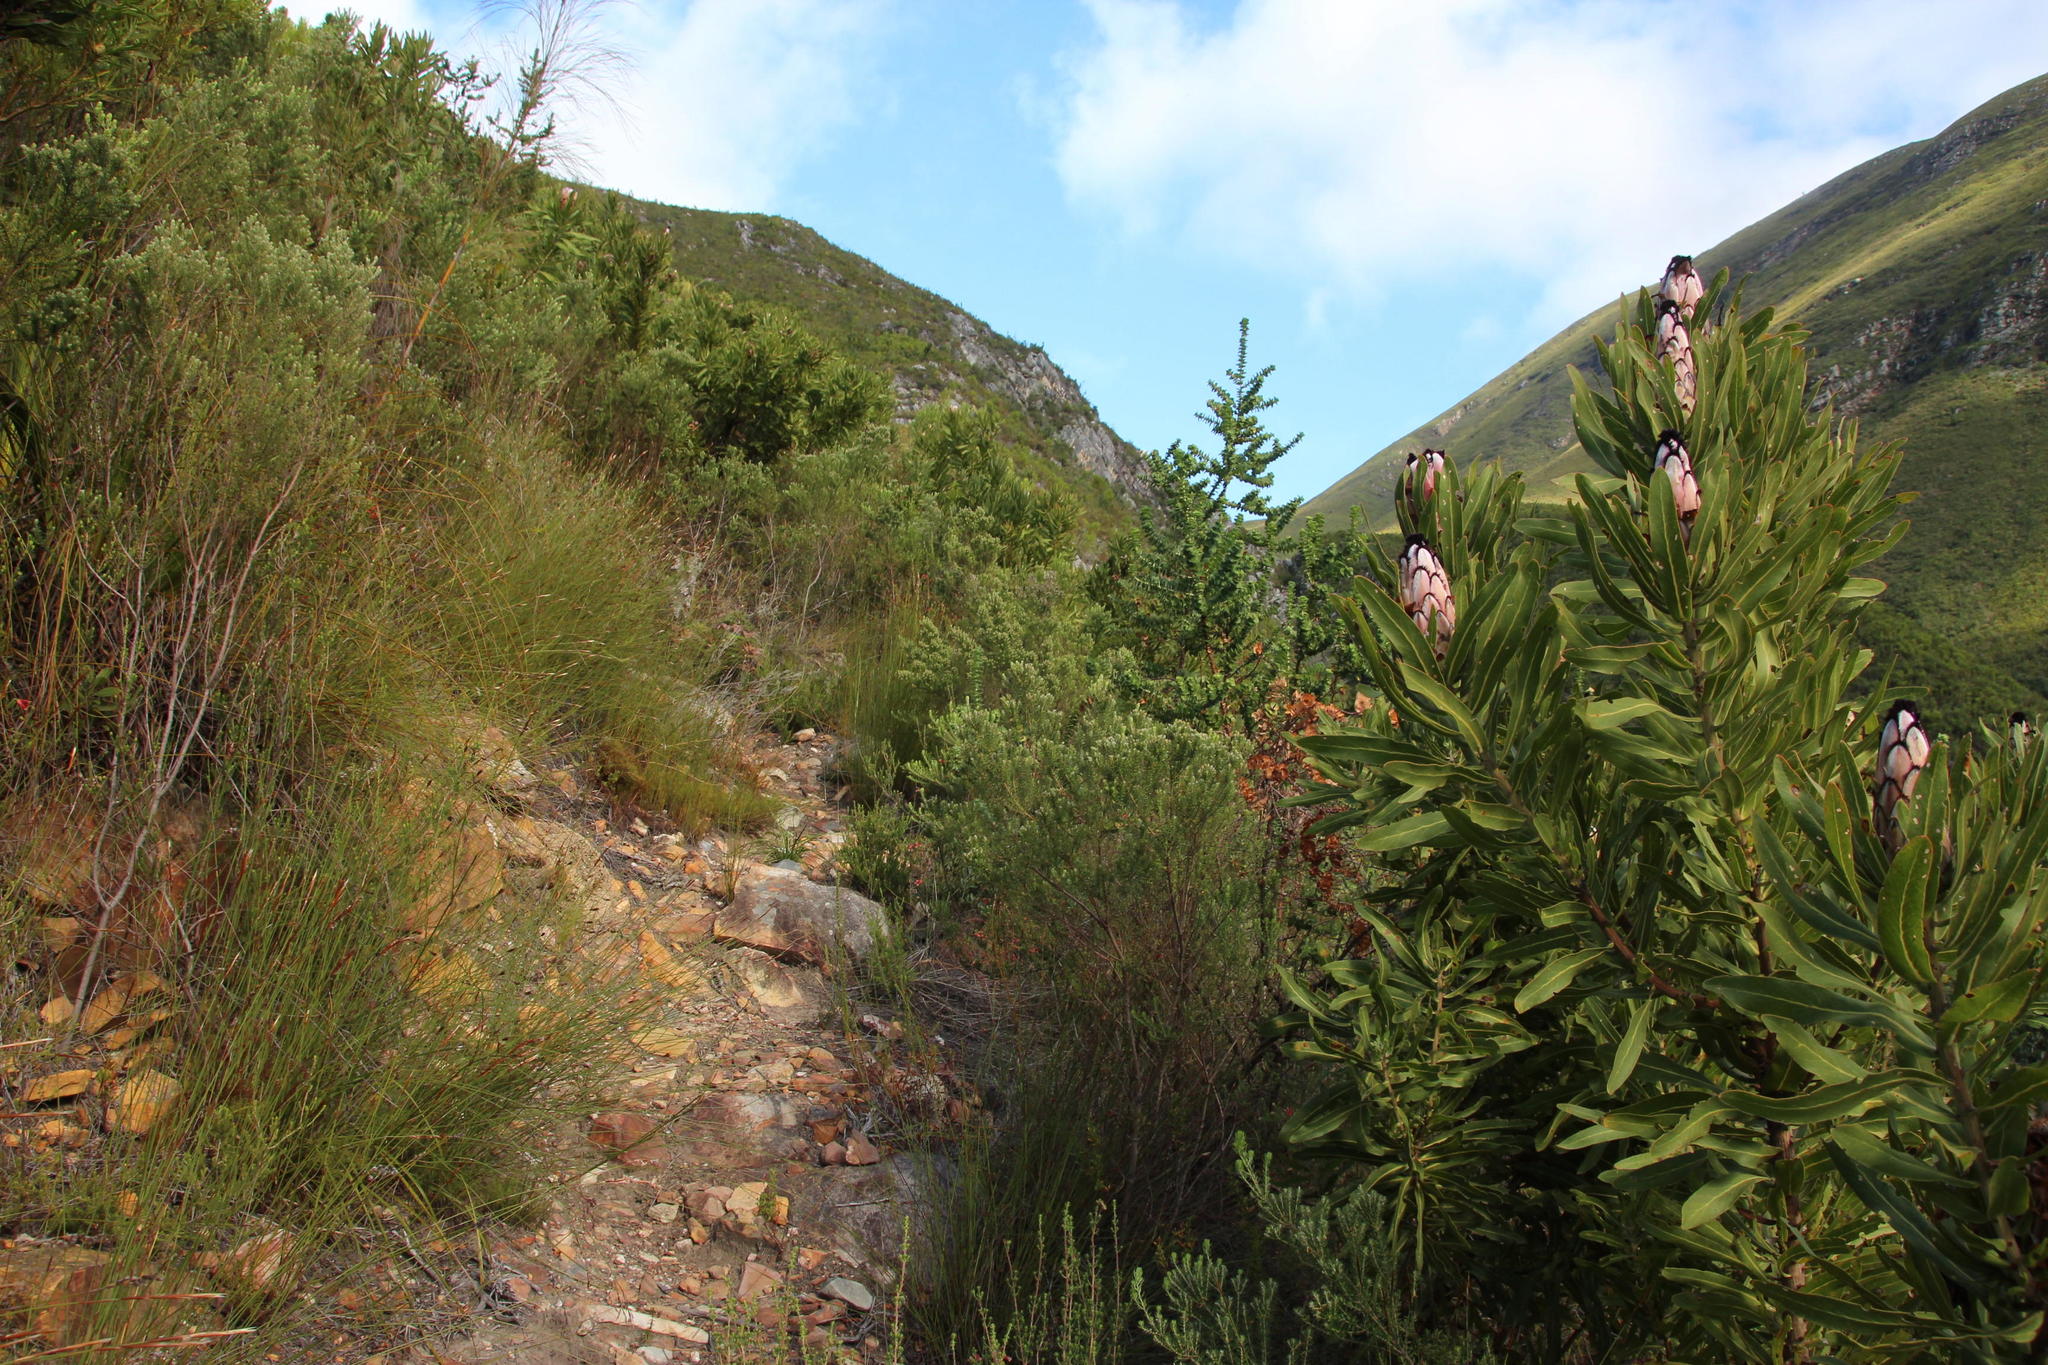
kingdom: Plantae
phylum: Tracheophyta
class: Magnoliopsida
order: Rosales
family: Rhamnaceae
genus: Phylica
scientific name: Phylica purpurea
